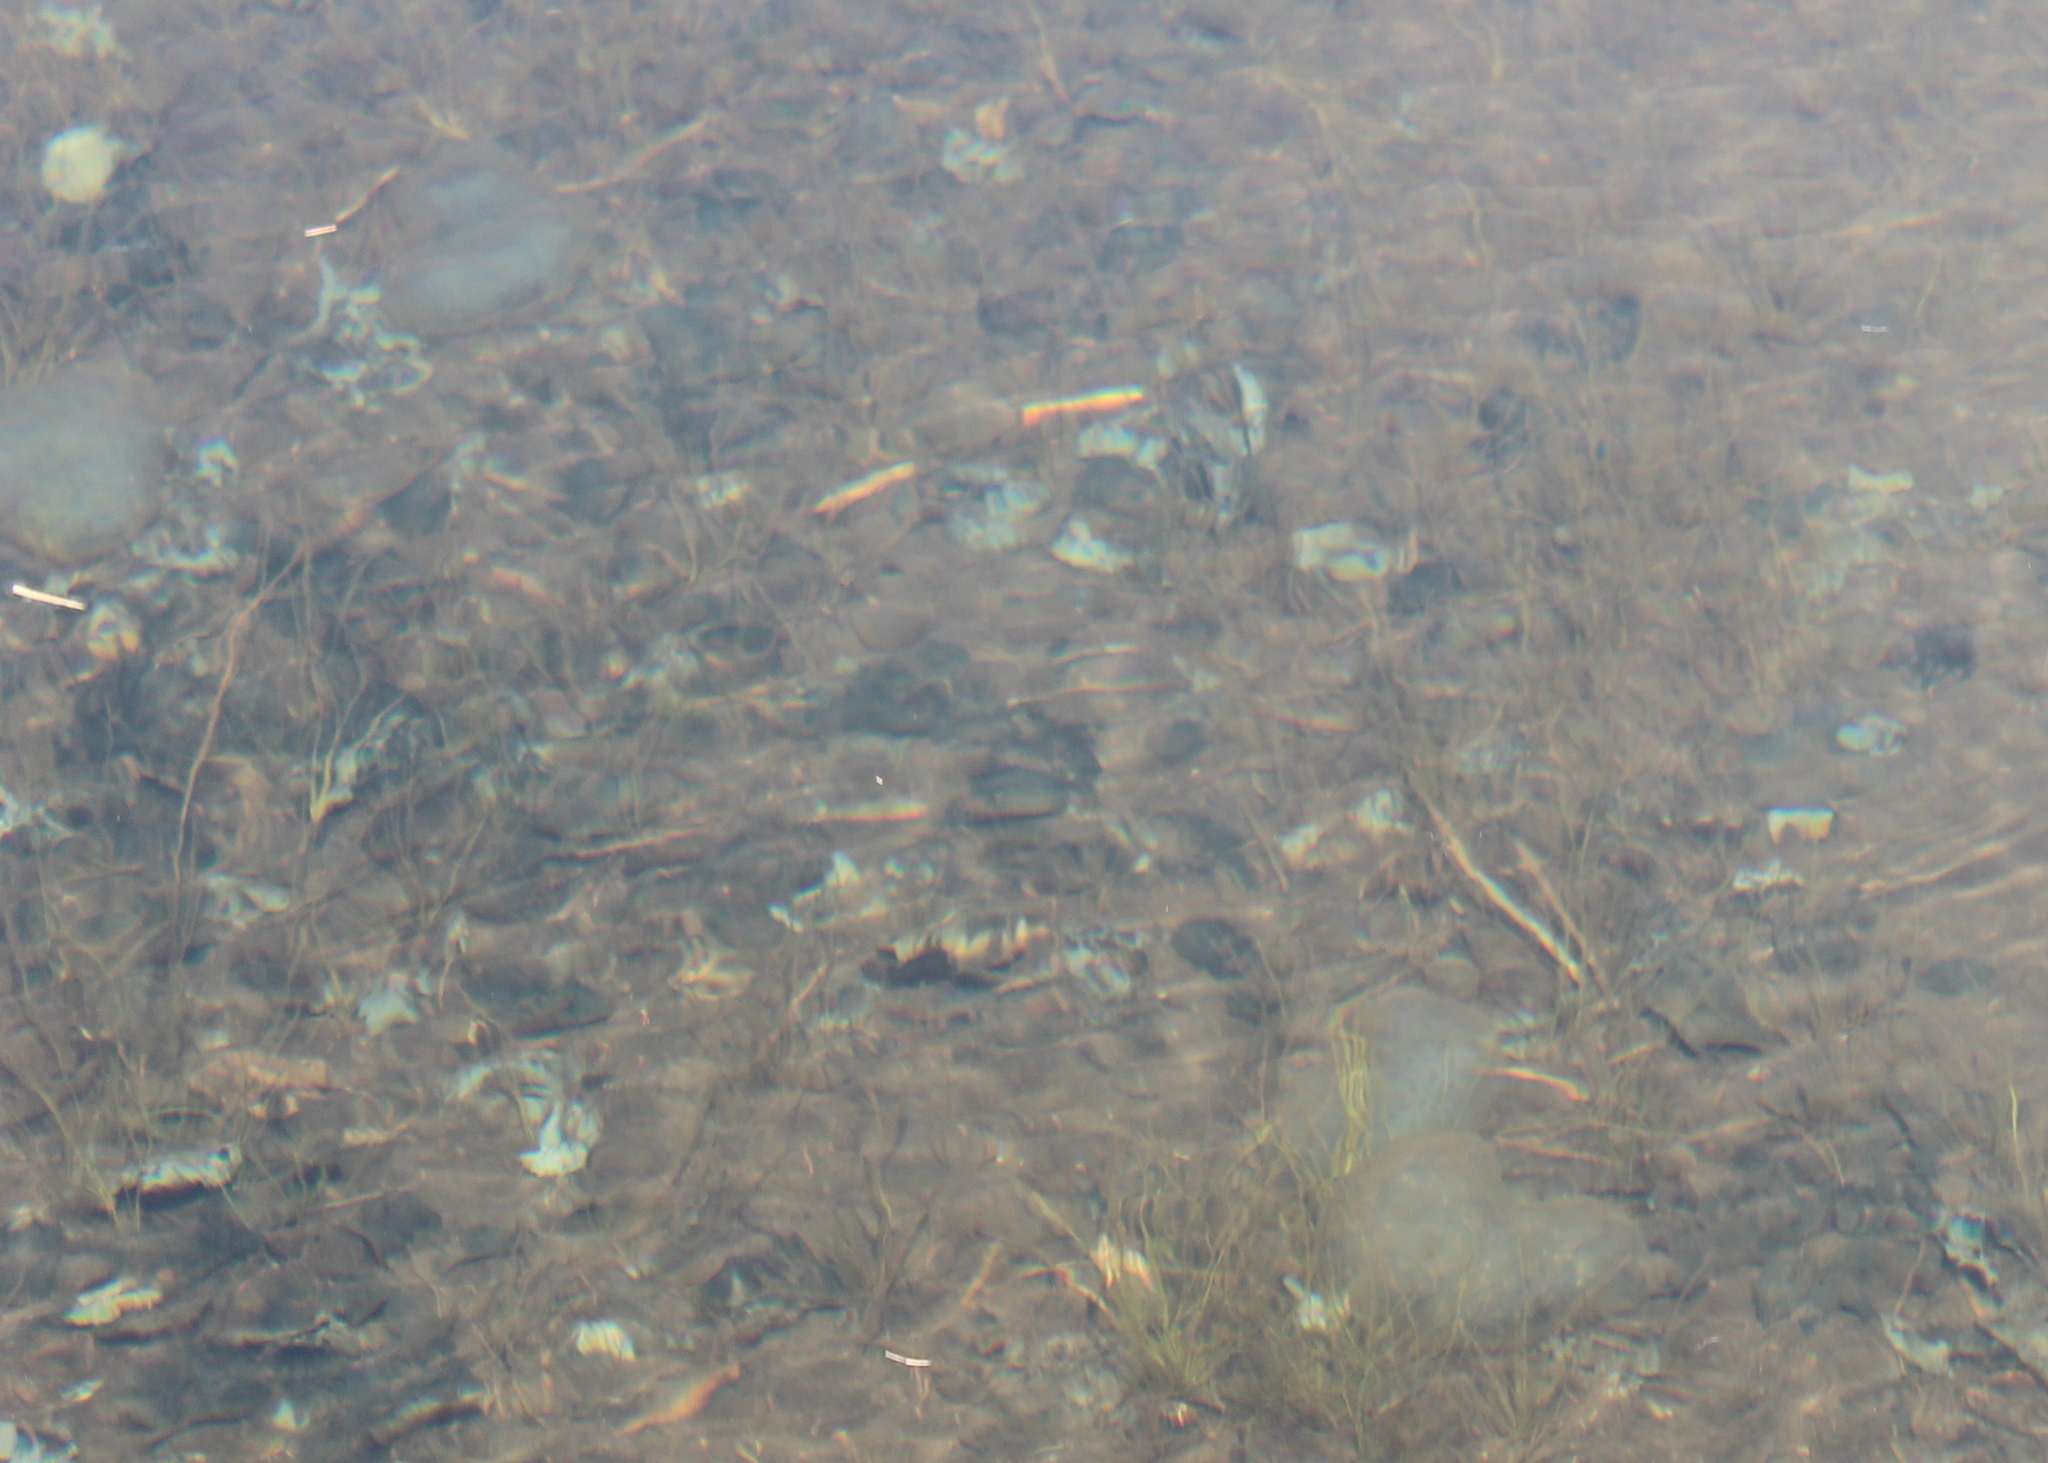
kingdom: Animalia
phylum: Chordata
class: Amphibia
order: Caudata
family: Ambystomatidae
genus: Ambystoma
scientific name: Ambystoma maculatum
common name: Spotted salamander
